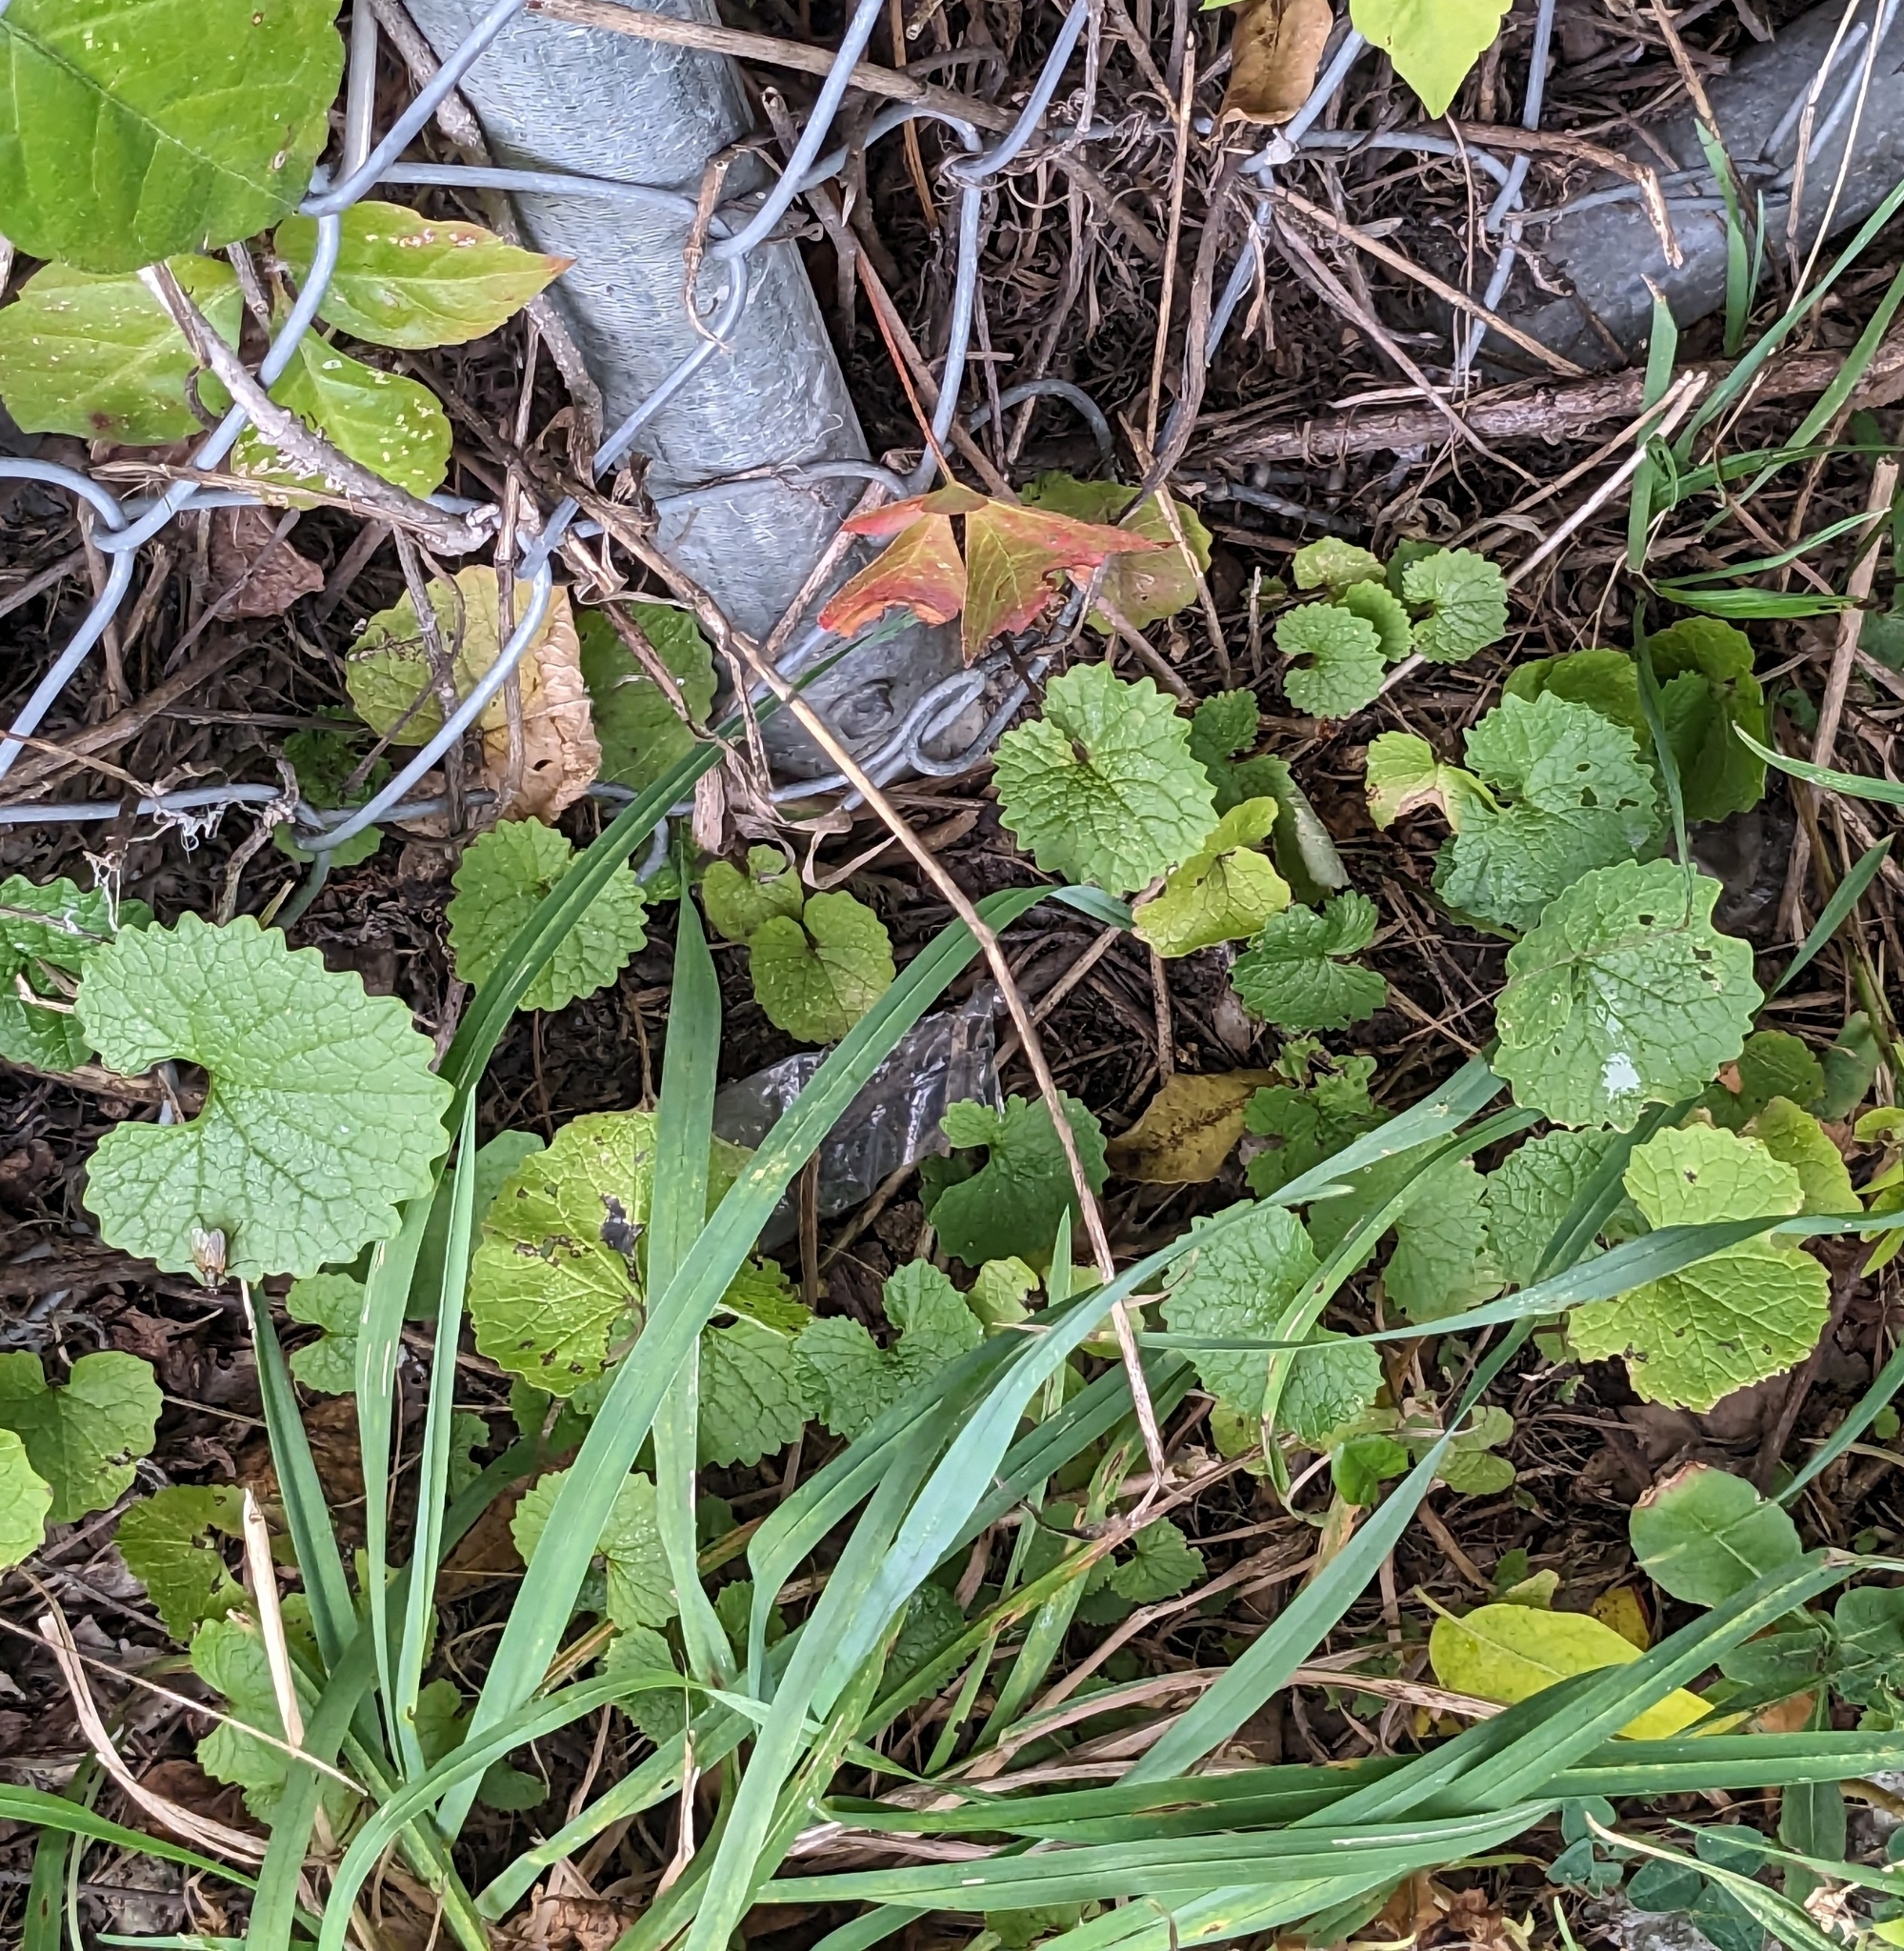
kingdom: Plantae
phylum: Tracheophyta
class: Magnoliopsida
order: Brassicales
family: Brassicaceae
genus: Alliaria
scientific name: Alliaria petiolata
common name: Garlic mustard
